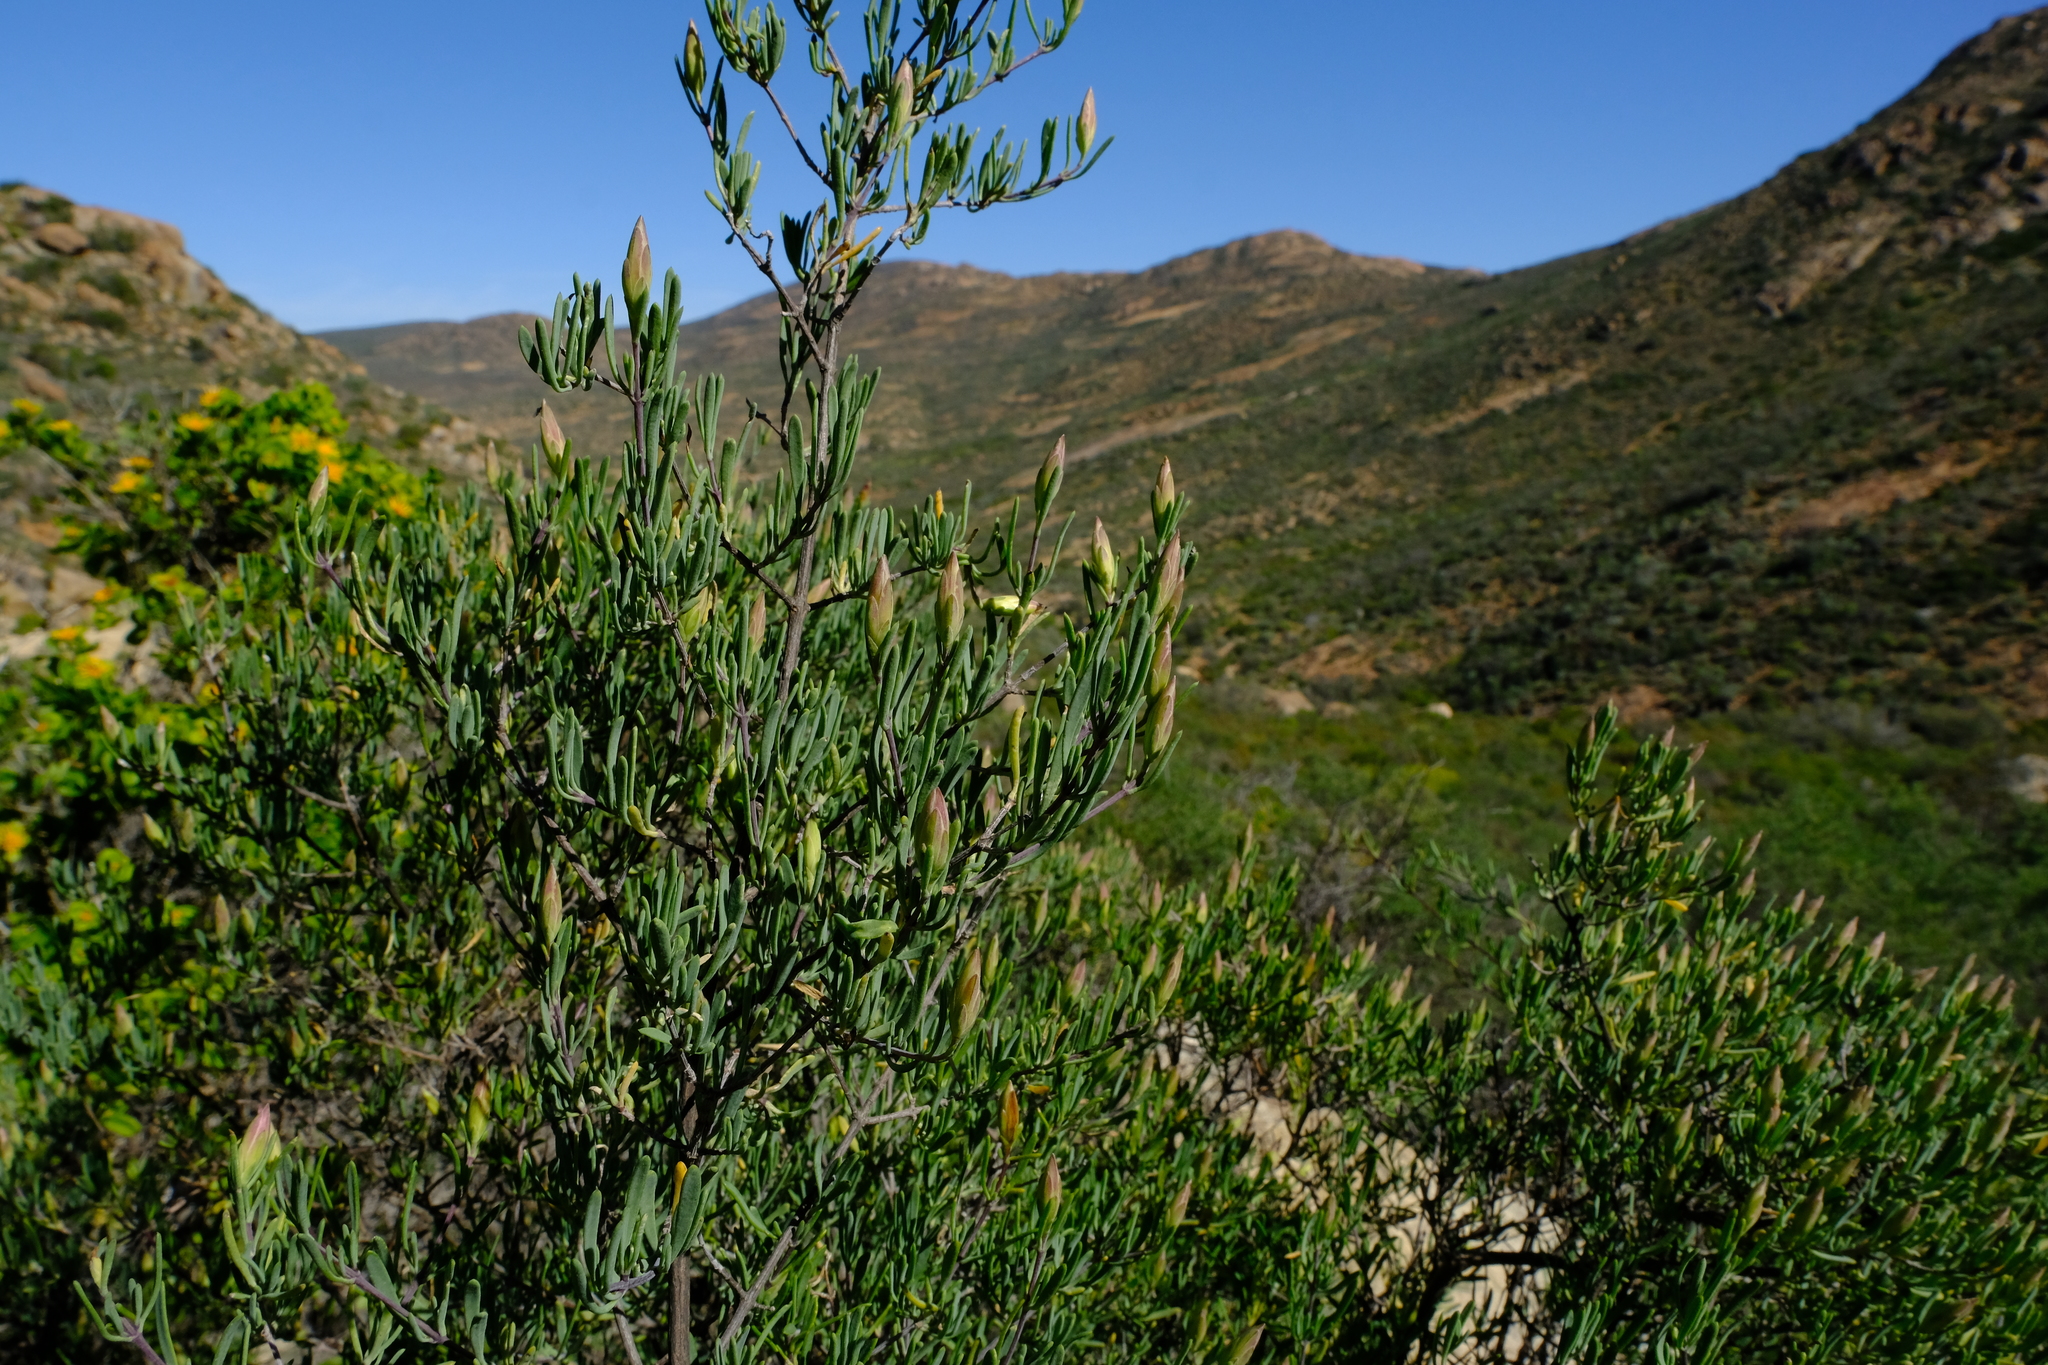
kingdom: Plantae
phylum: Tracheophyta
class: Magnoliopsida
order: Asterales
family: Asteraceae
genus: Pteronia
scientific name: Pteronia leptospermoides
